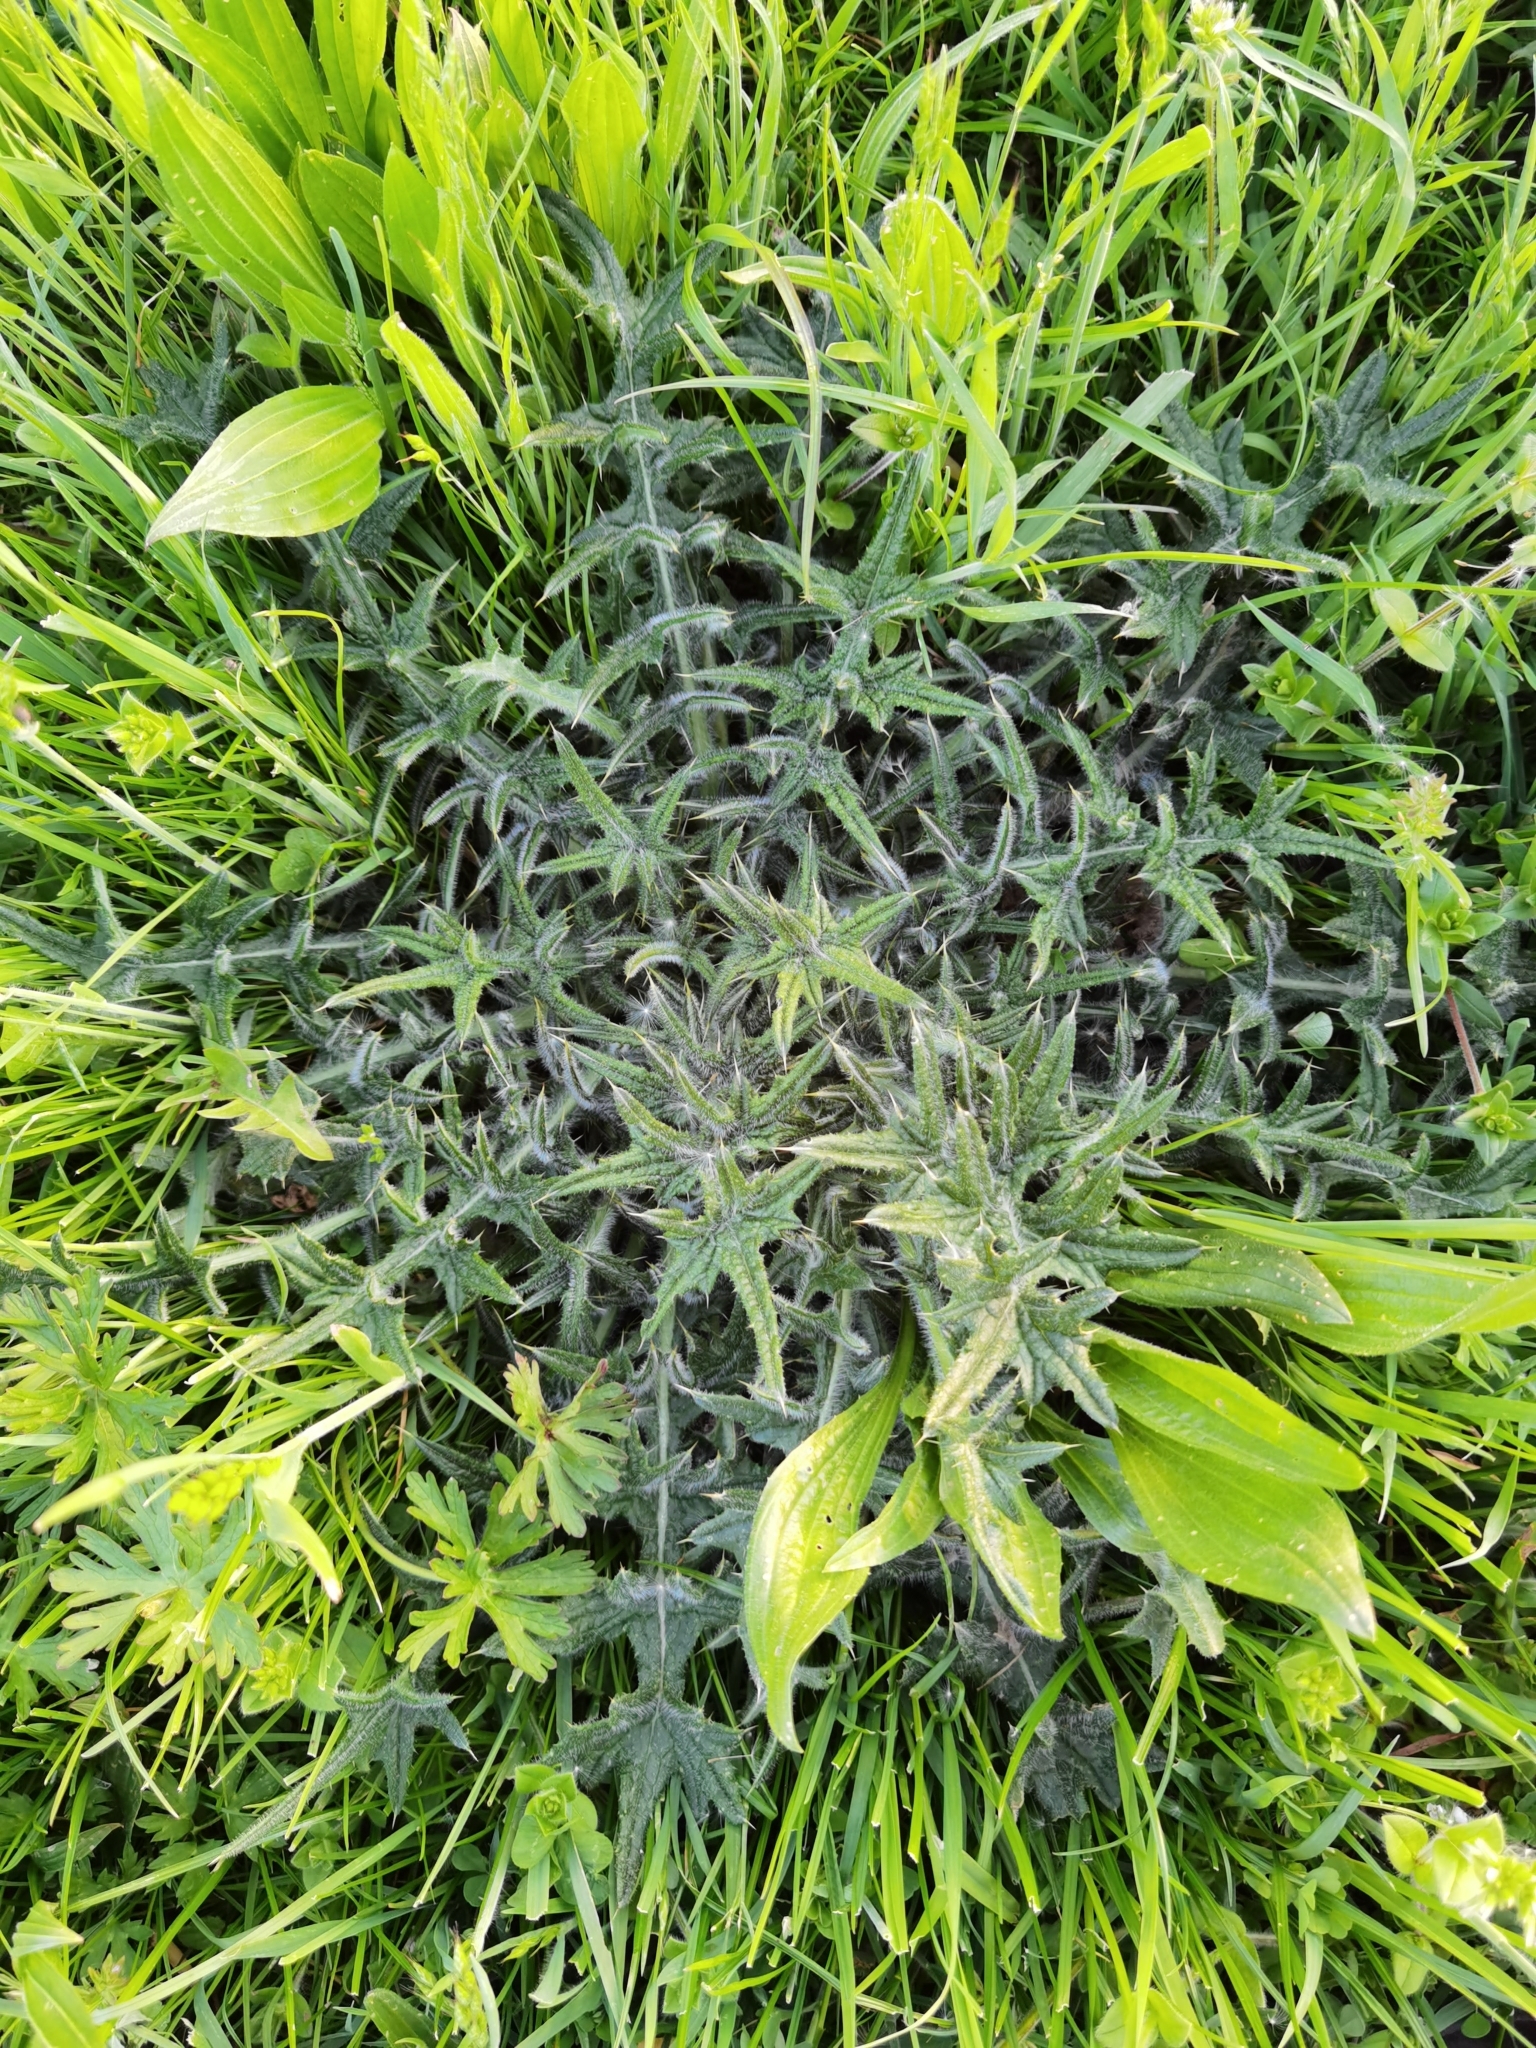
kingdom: Plantae
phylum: Tracheophyta
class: Magnoliopsida
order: Asterales
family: Asteraceae
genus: Cirsium
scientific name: Cirsium vulgare
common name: Bull thistle
